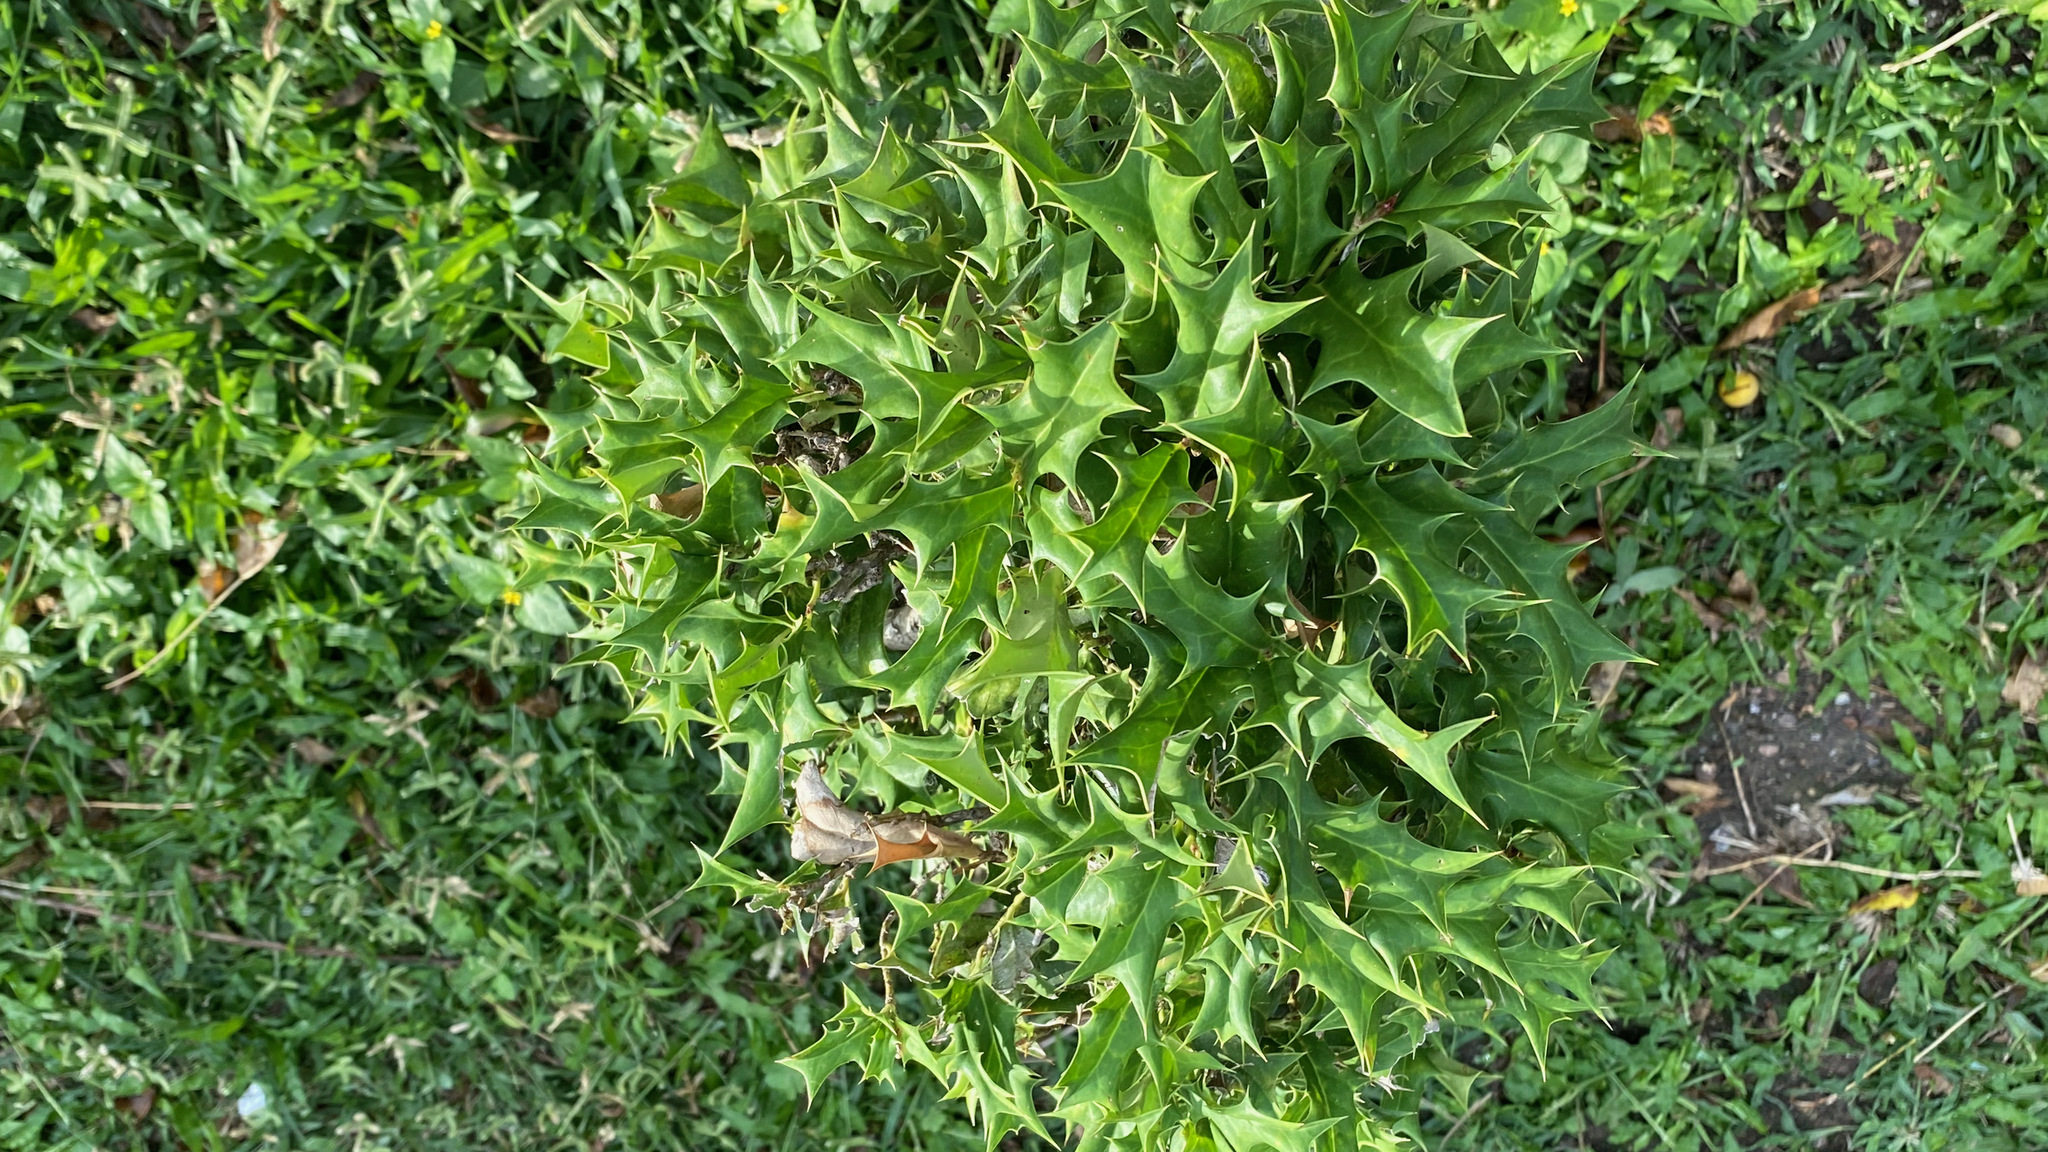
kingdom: Plantae
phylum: Tracheophyta
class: Magnoliopsida
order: Aquifoliales
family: Aquifoliaceae
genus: Ilex
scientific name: Ilex cornuta
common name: Chinese holly
